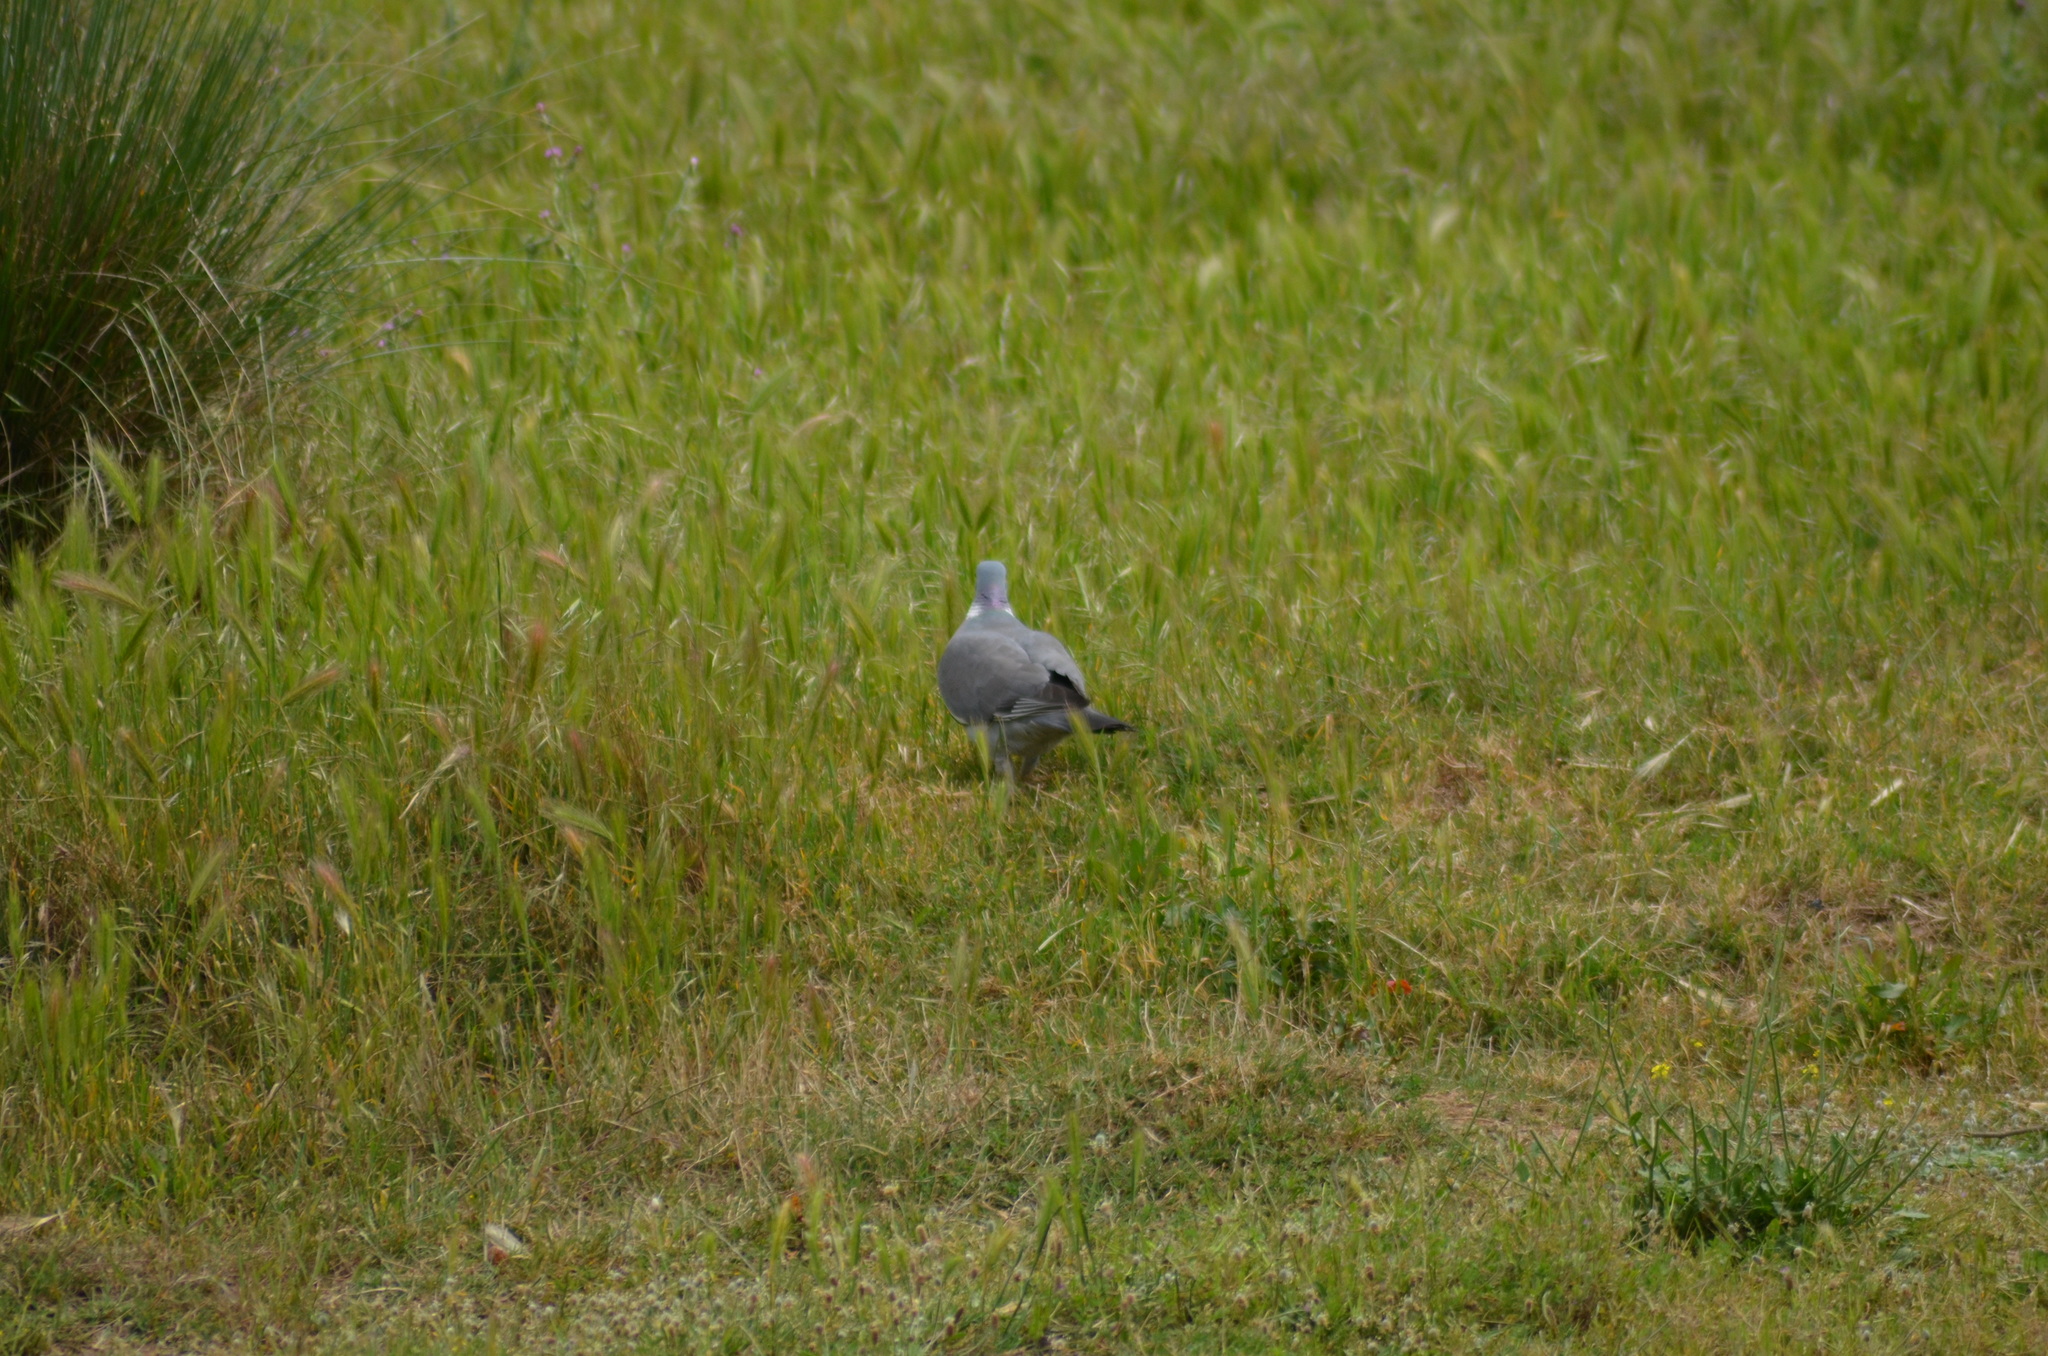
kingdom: Animalia
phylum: Chordata
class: Aves
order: Columbiformes
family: Columbidae
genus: Columba
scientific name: Columba palumbus
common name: Common wood pigeon
